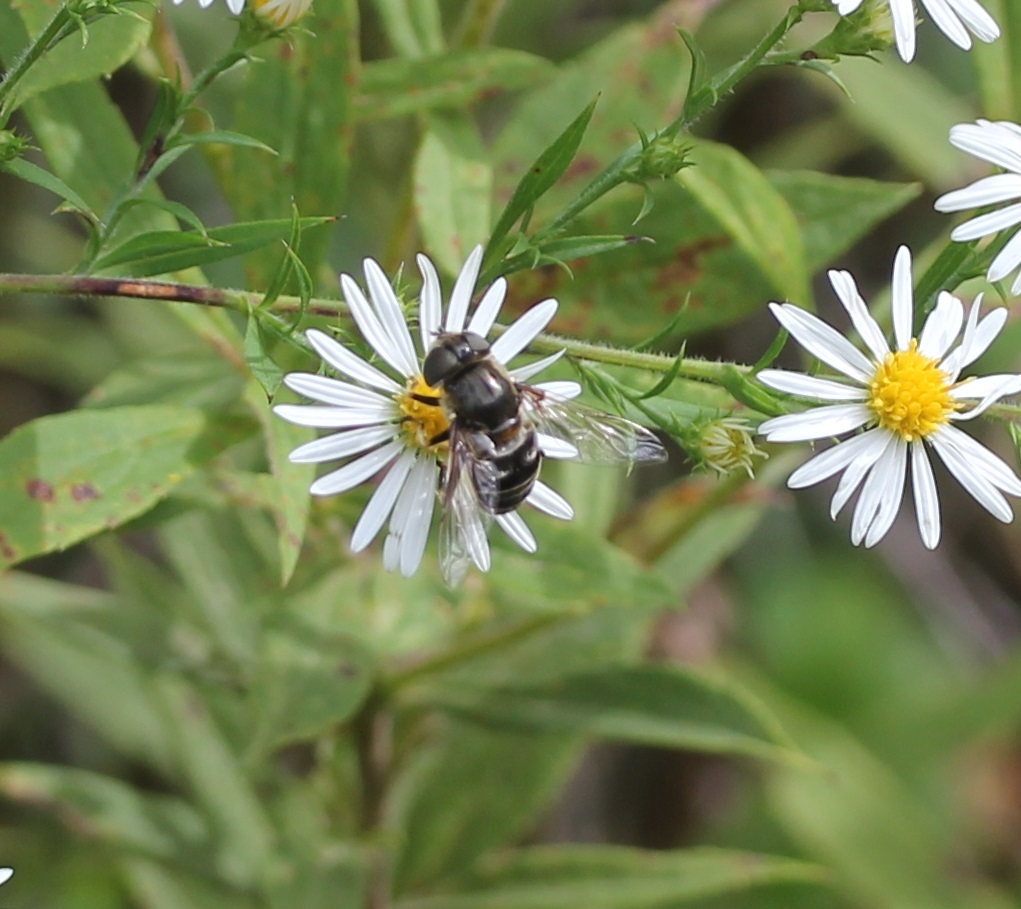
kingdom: Animalia
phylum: Arthropoda
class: Insecta
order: Diptera
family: Syrphidae
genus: Eristalis
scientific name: Eristalis dimidiata
